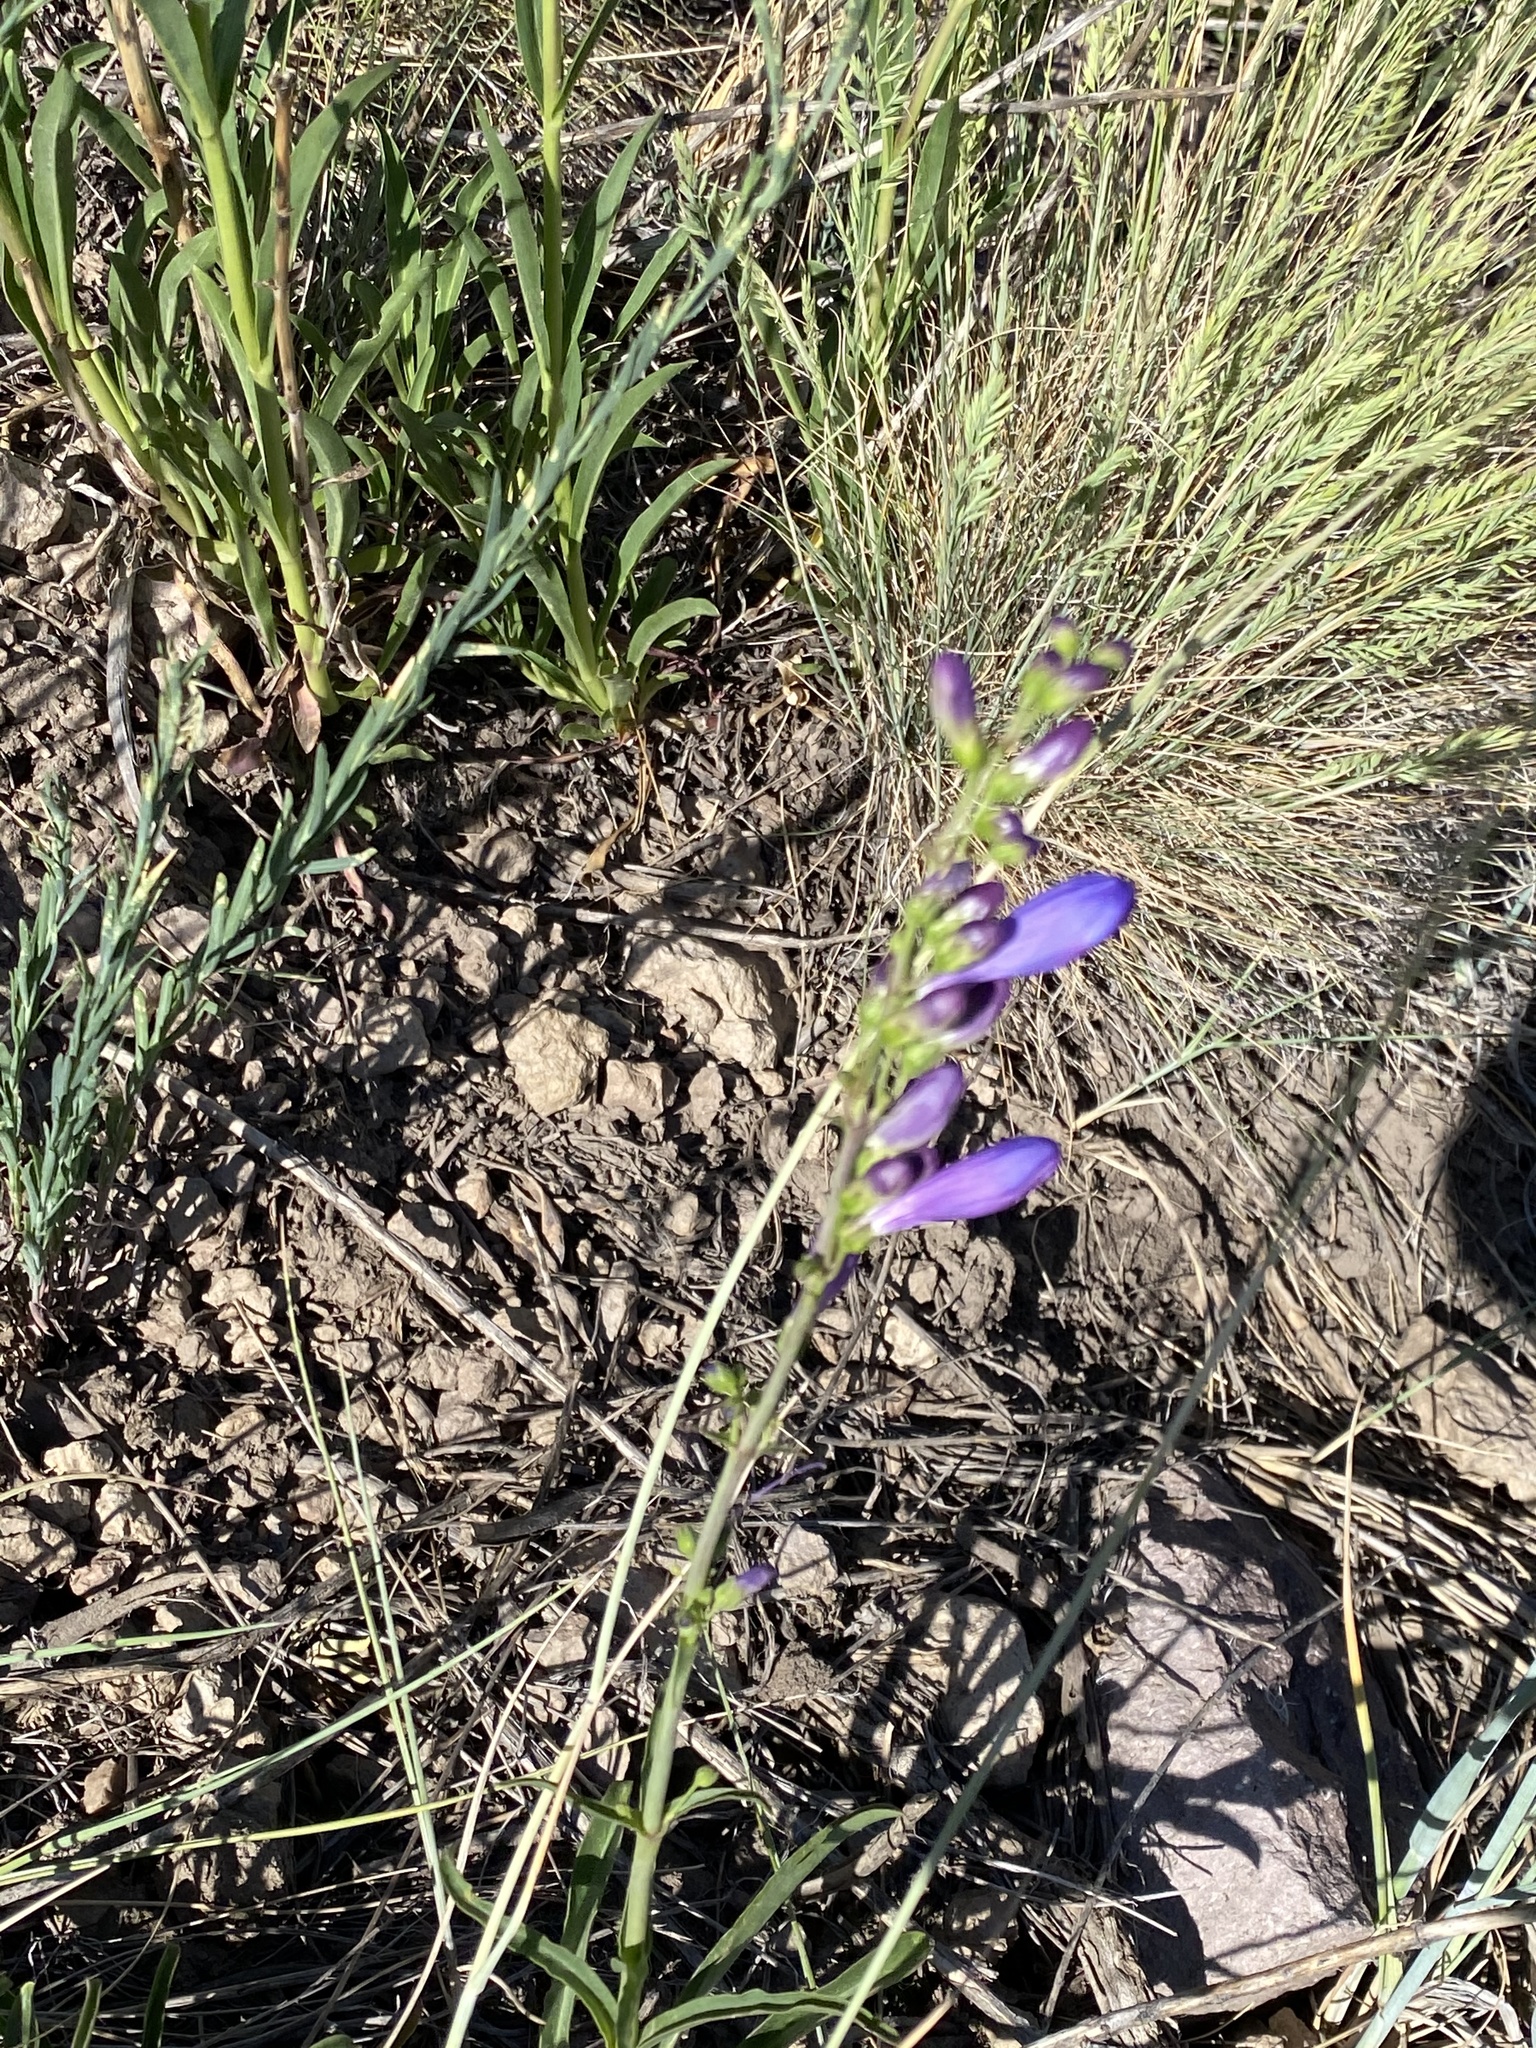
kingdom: Plantae
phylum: Tracheophyta
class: Magnoliopsida
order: Lamiales
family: Plantaginaceae
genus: Penstemon
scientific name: Penstemon strictus
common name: Rocky mountain penstemon
